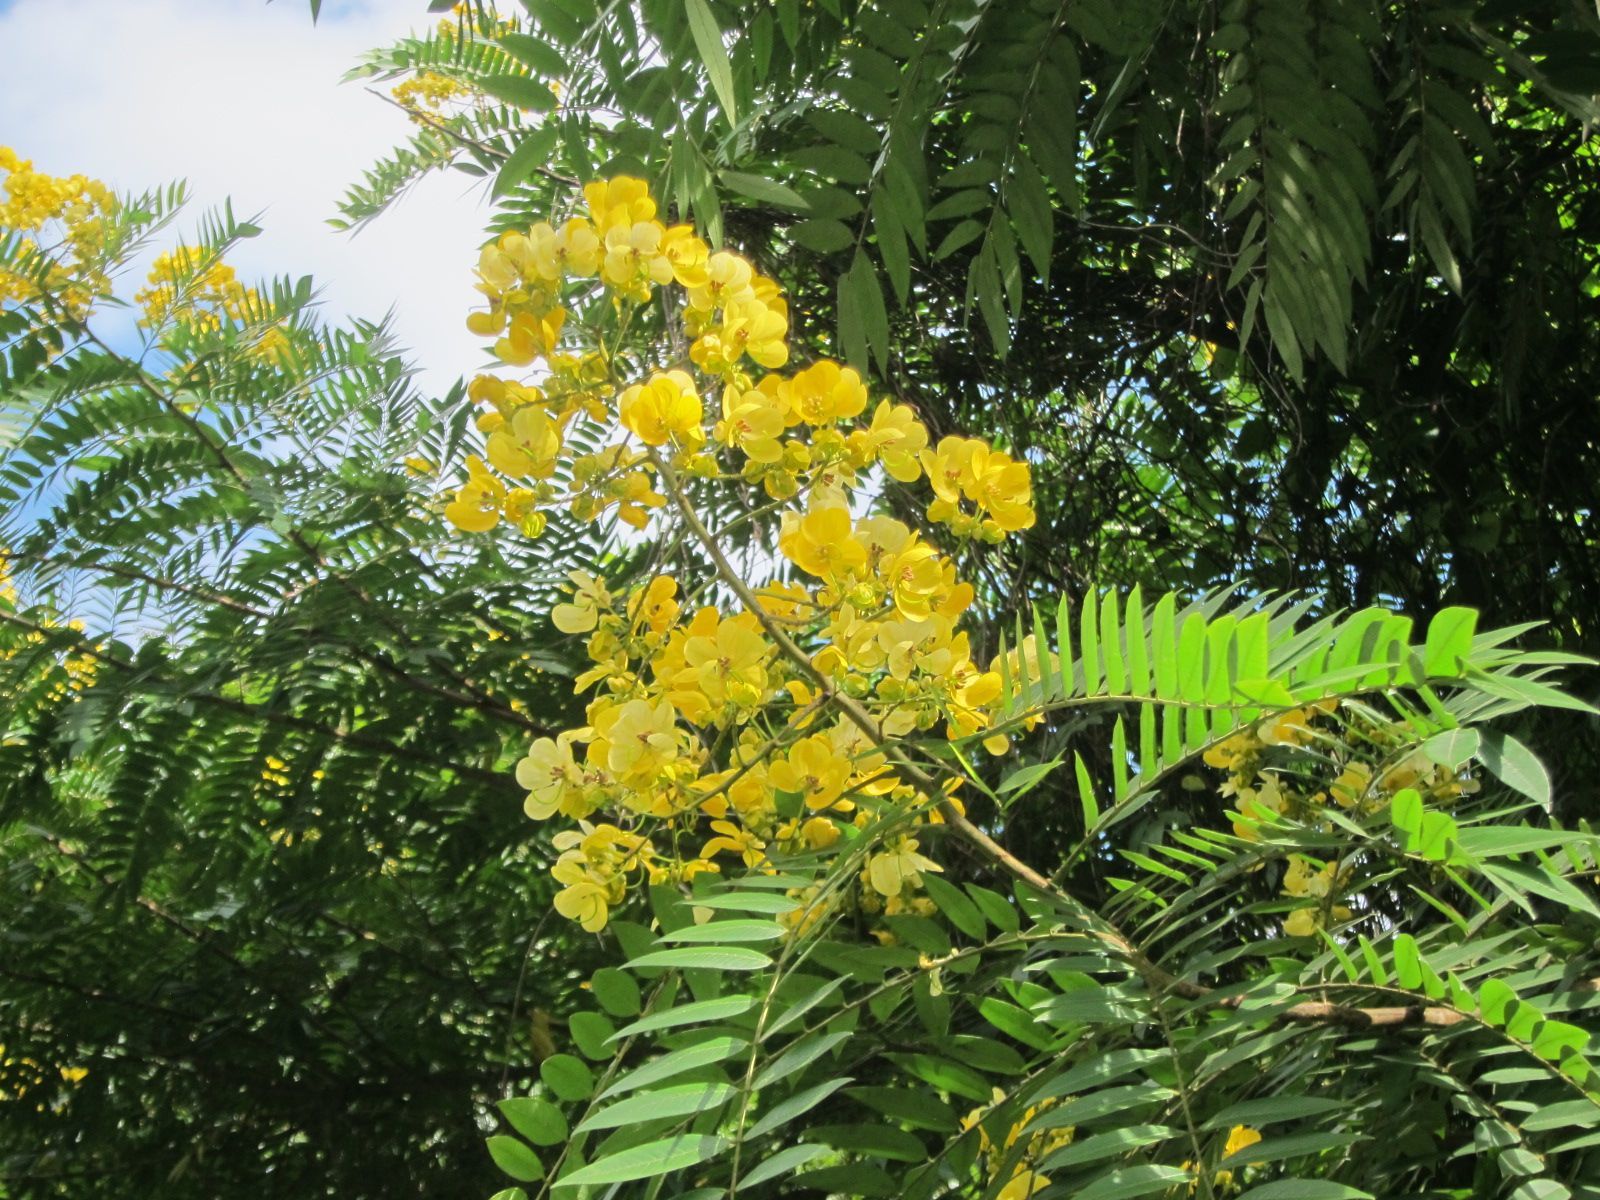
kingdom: Plantae
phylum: Tracheophyta
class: Magnoliopsida
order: Fabales
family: Fabaceae
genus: Senna
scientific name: Senna spectabilis
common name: Casia amarilla
